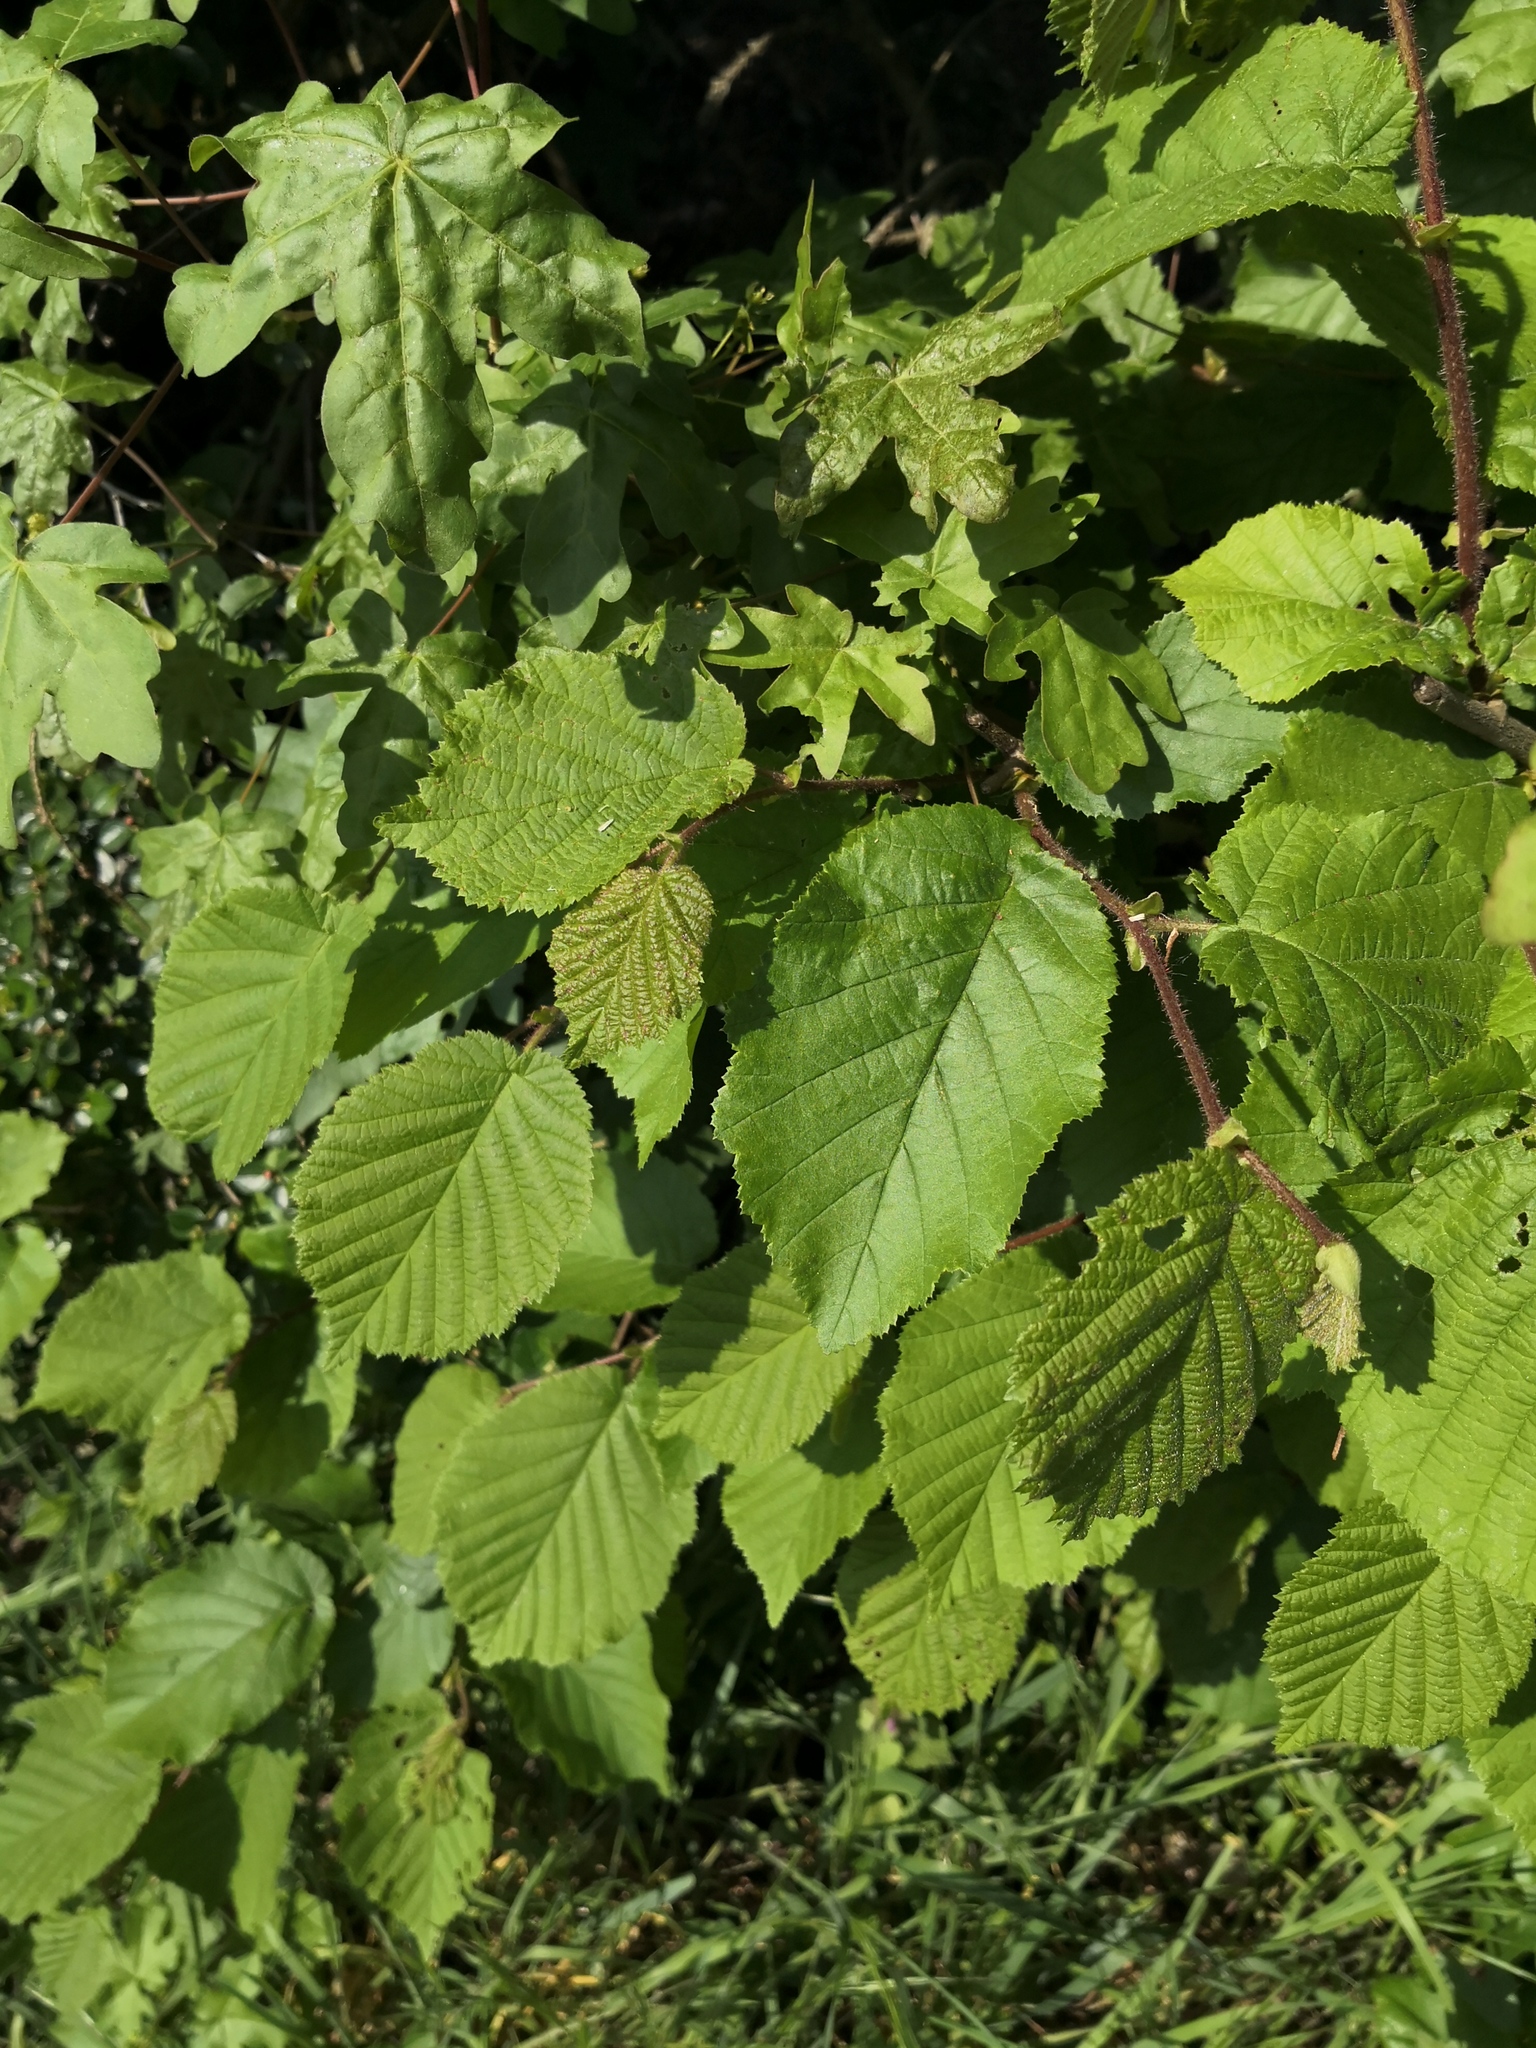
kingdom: Plantae
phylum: Tracheophyta
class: Magnoliopsida
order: Fagales
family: Betulaceae
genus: Corylus
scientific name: Corylus avellana
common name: European hazel
